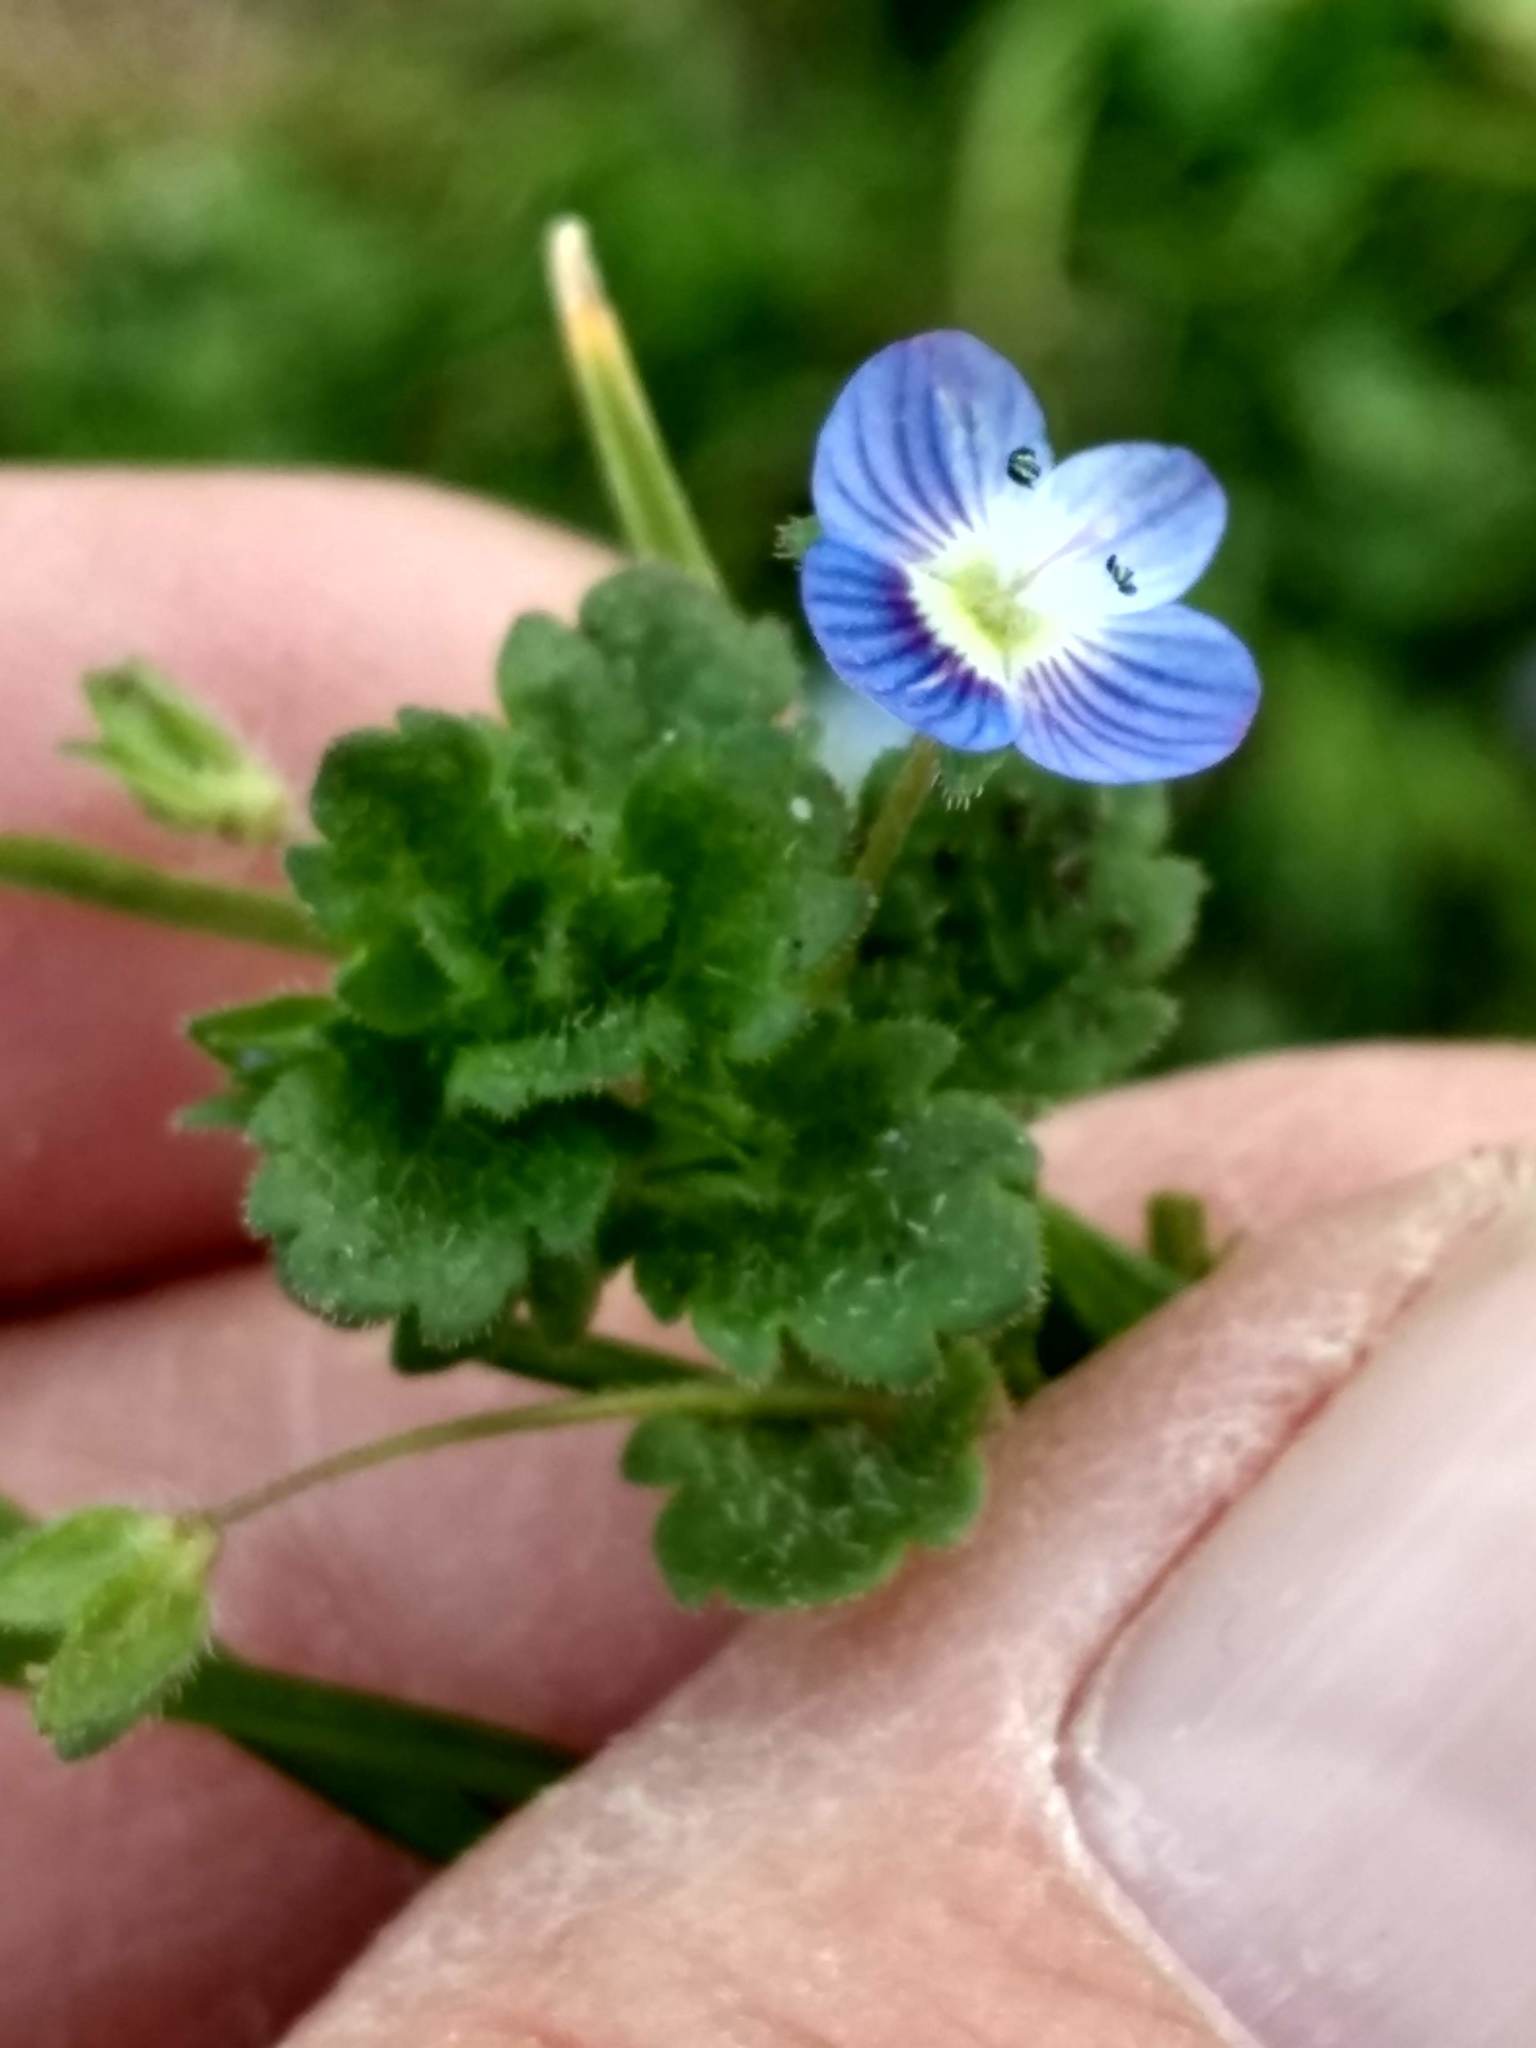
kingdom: Plantae
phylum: Tracheophyta
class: Magnoliopsida
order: Lamiales
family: Plantaginaceae
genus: Veronica
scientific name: Veronica persica
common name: Common field-speedwell
